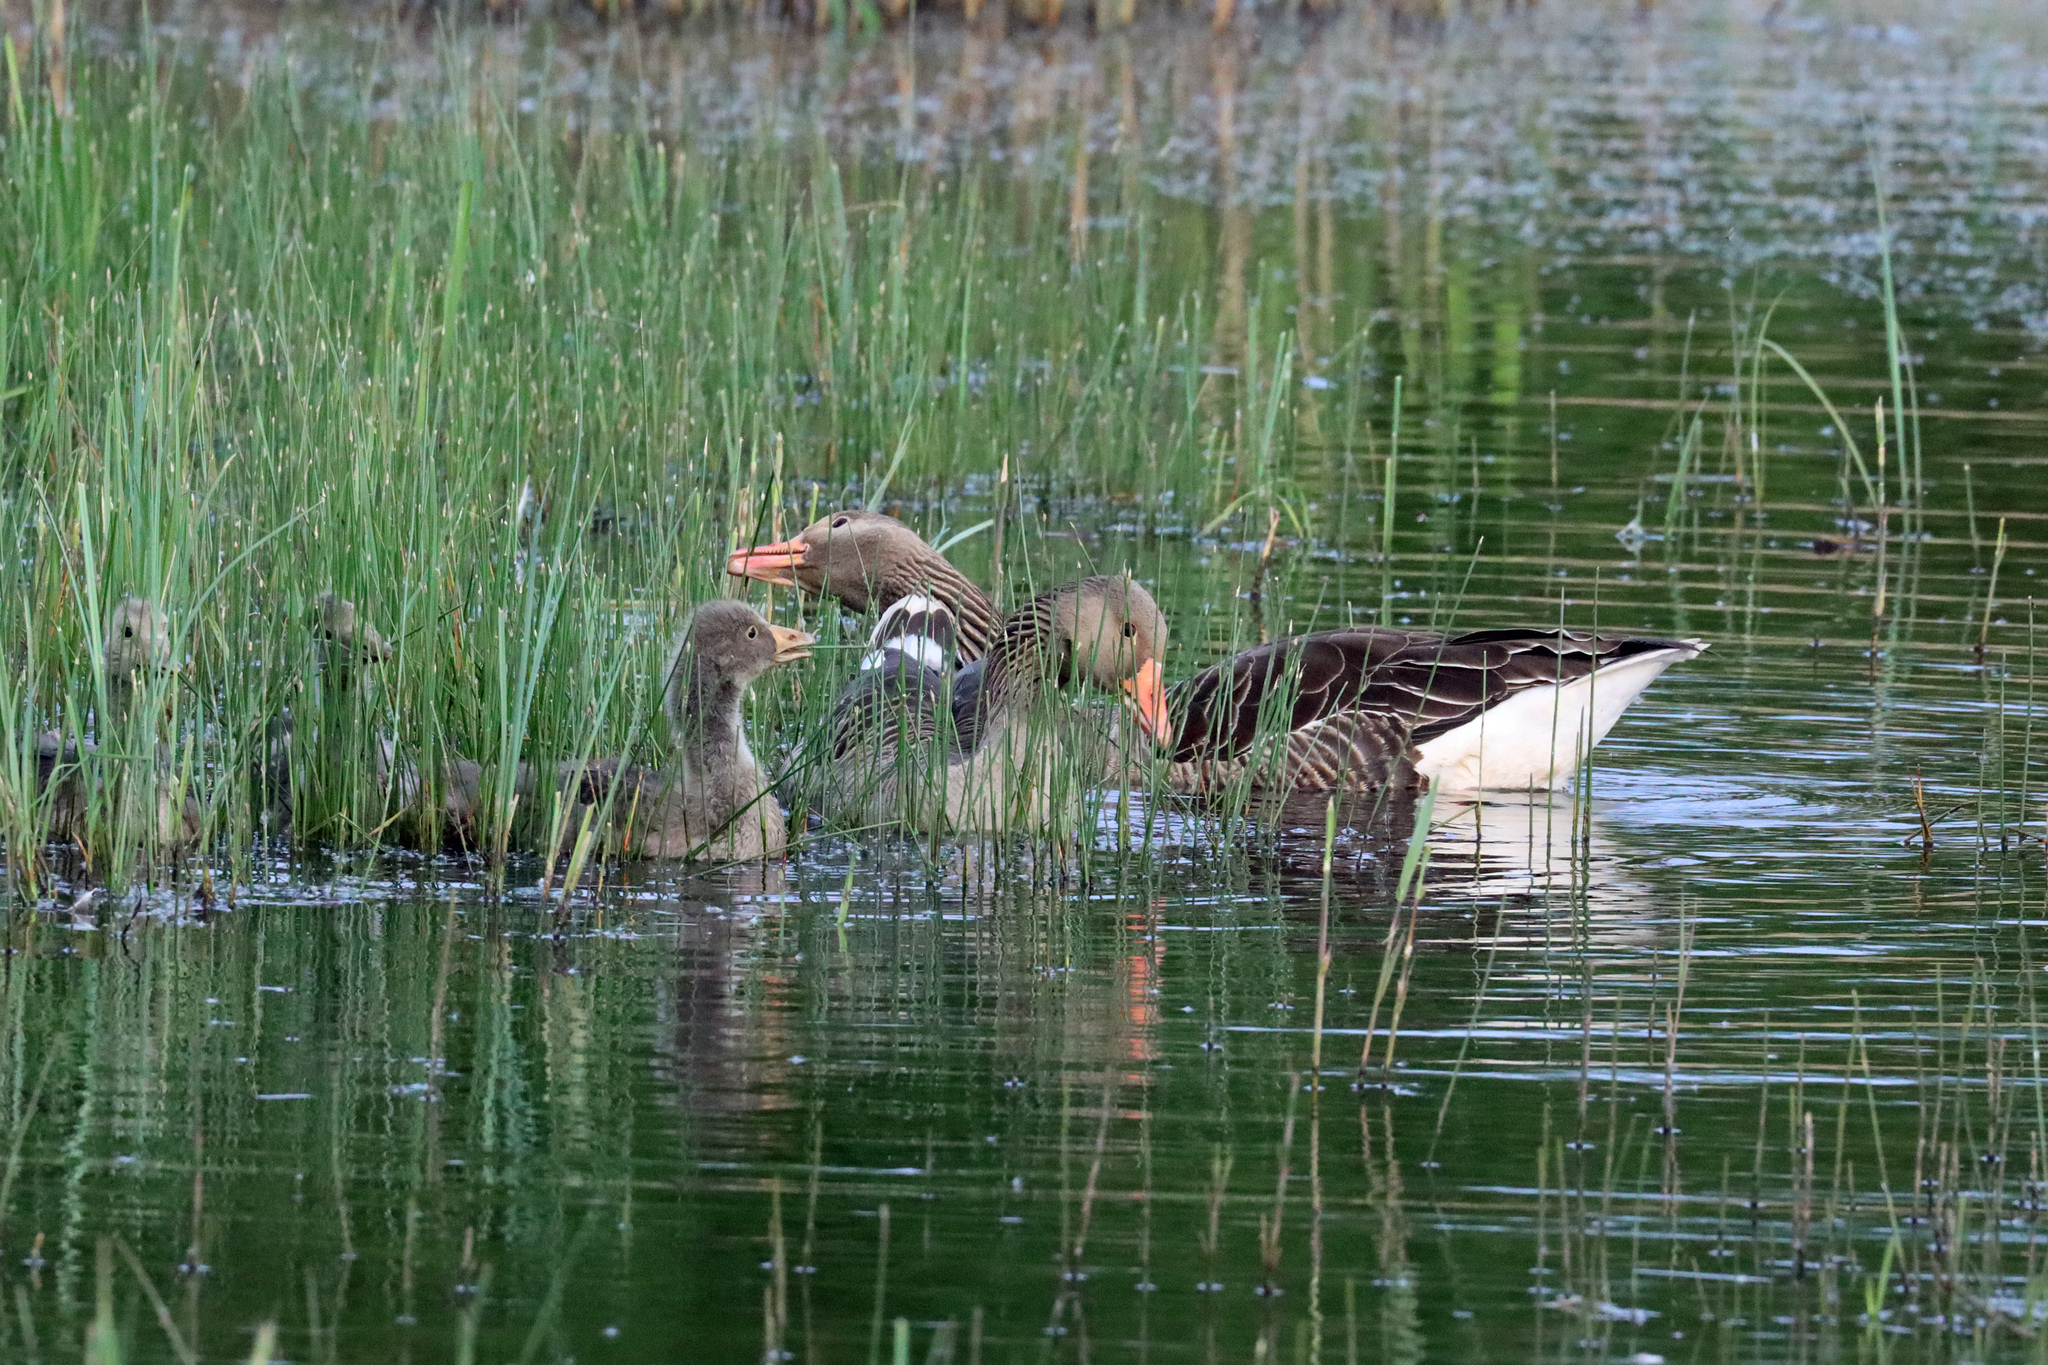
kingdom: Animalia
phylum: Chordata
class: Aves
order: Anseriformes
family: Anatidae
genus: Anser
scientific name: Anser anser
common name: Greylag goose
